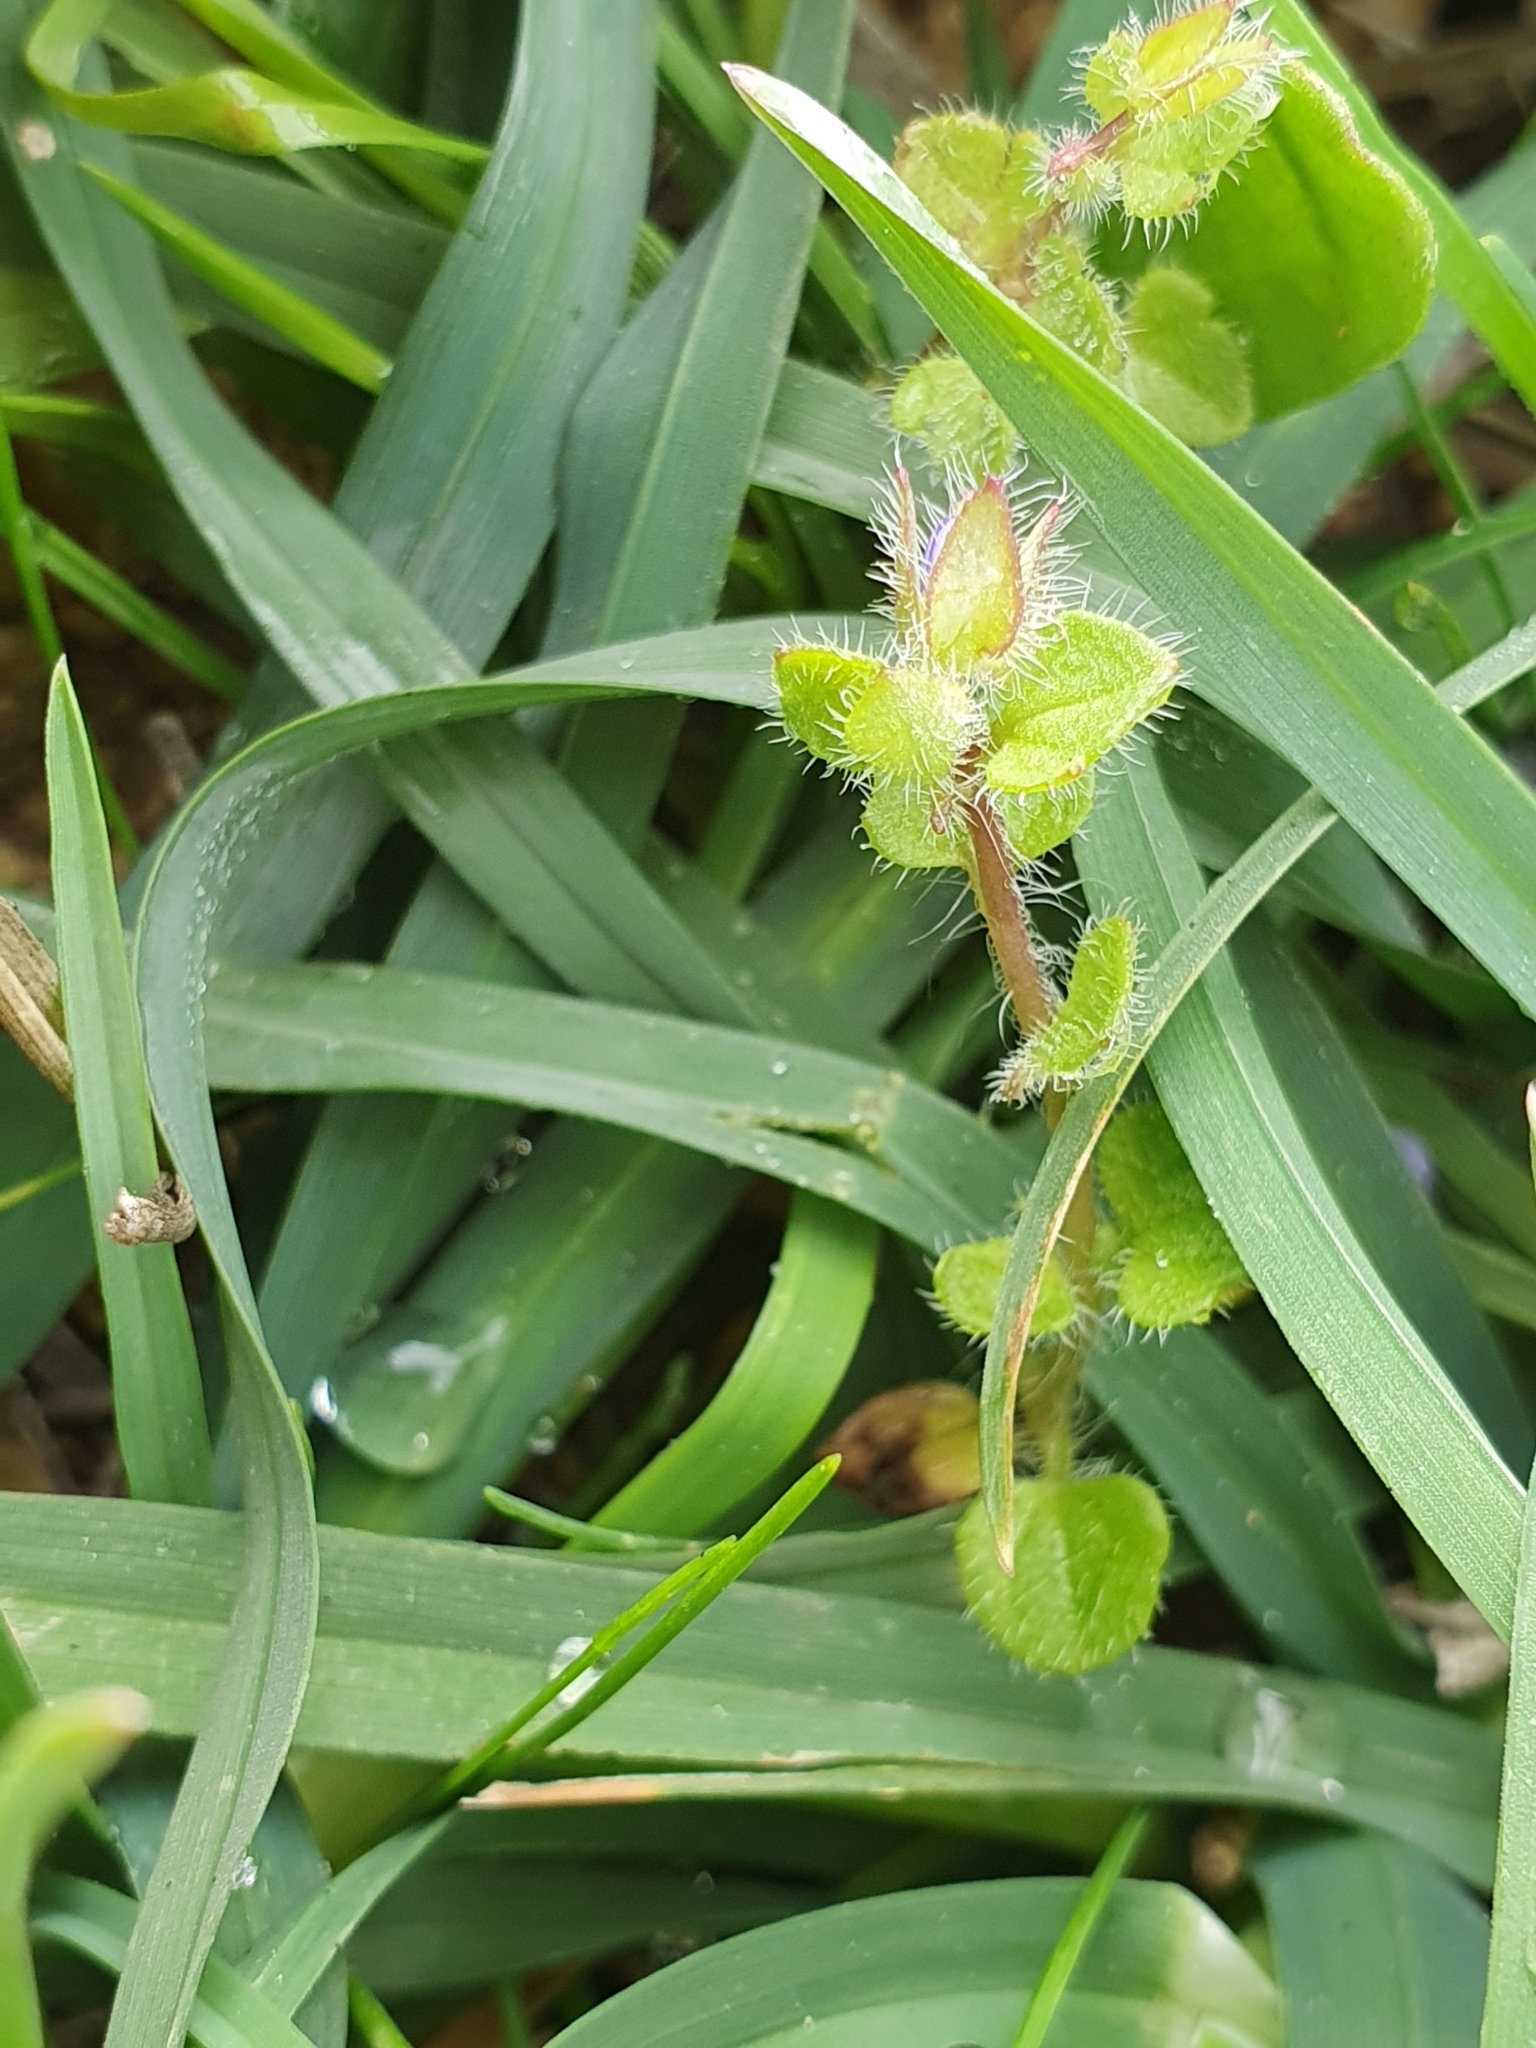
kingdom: Plantae
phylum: Tracheophyta
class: Magnoliopsida
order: Lamiales
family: Plantaginaceae
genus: Veronica
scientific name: Veronica hederifolia
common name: Ivy-leaved speedwell
